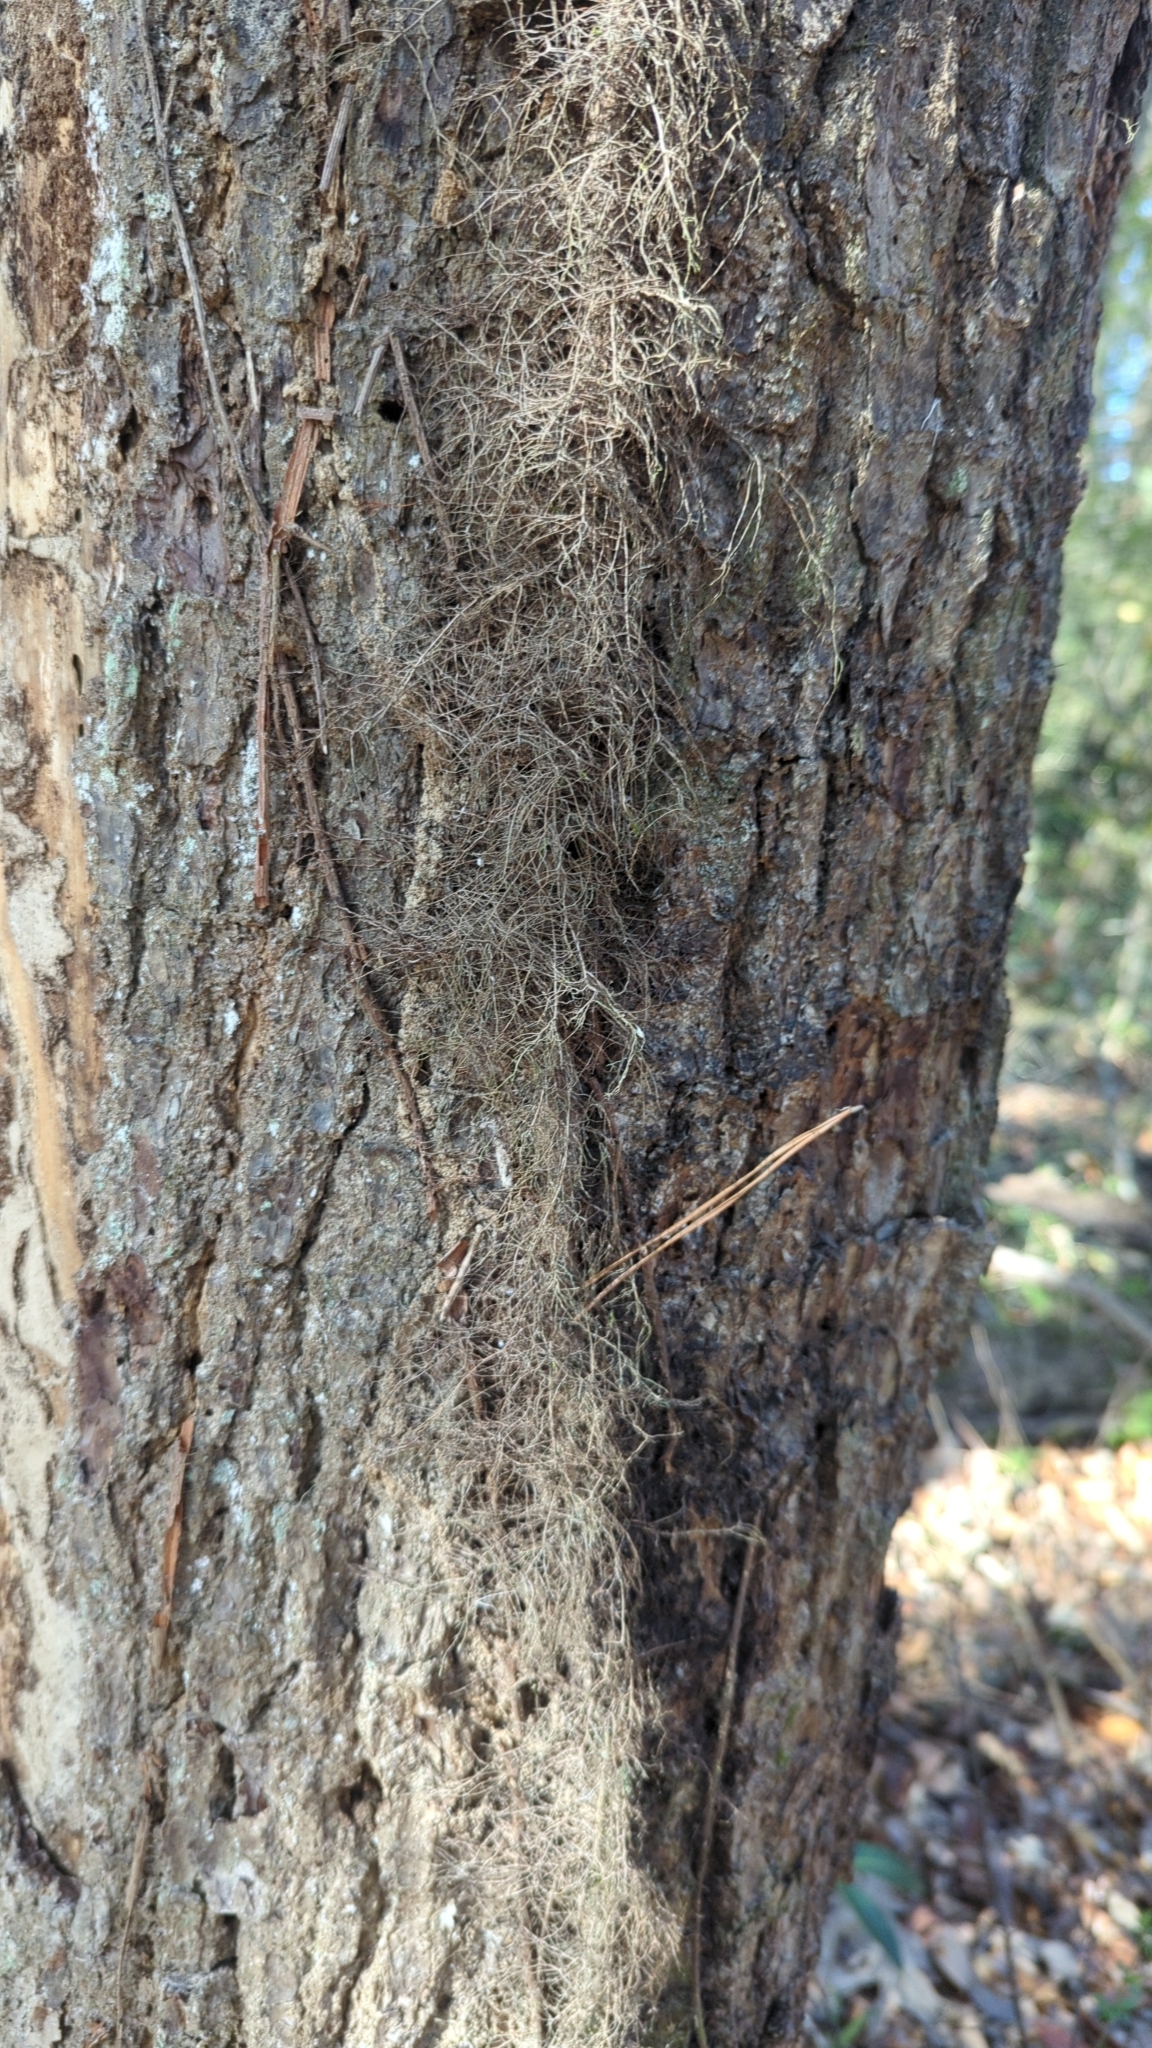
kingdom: Plantae
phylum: Tracheophyta
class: Magnoliopsida
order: Sapindales
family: Anacardiaceae
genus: Toxicodendron
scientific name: Toxicodendron radicans
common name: Poison ivy
